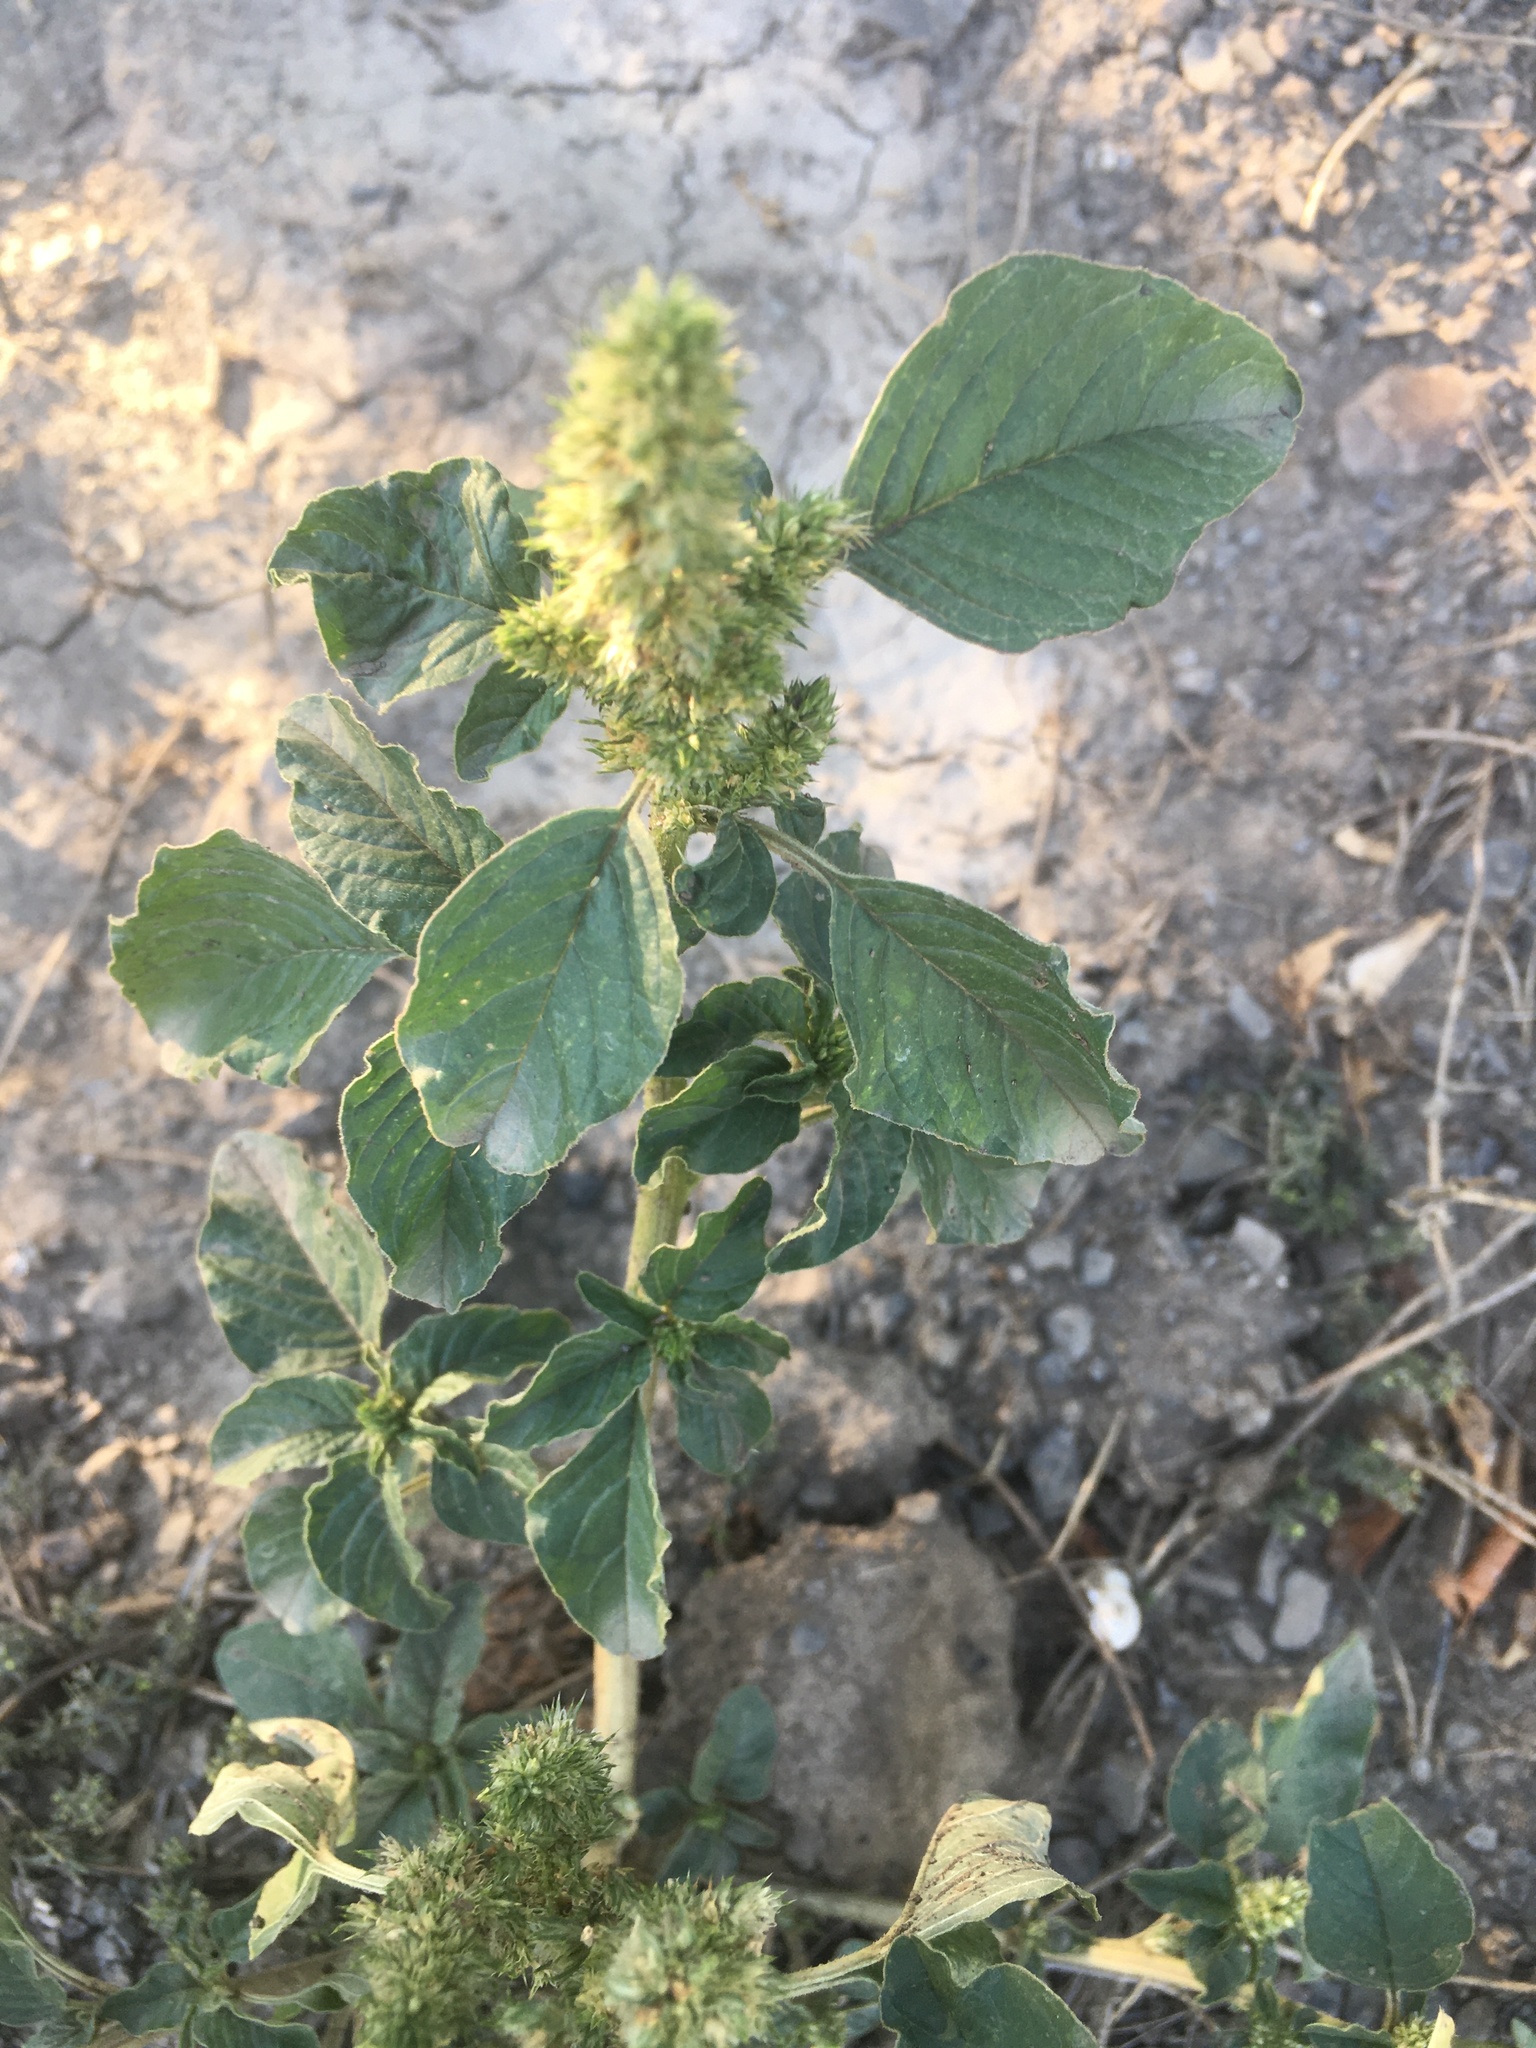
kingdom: Plantae
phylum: Tracheophyta
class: Magnoliopsida
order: Caryophyllales
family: Amaranthaceae
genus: Amaranthus
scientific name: Amaranthus retroflexus
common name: Redroot amaranth
